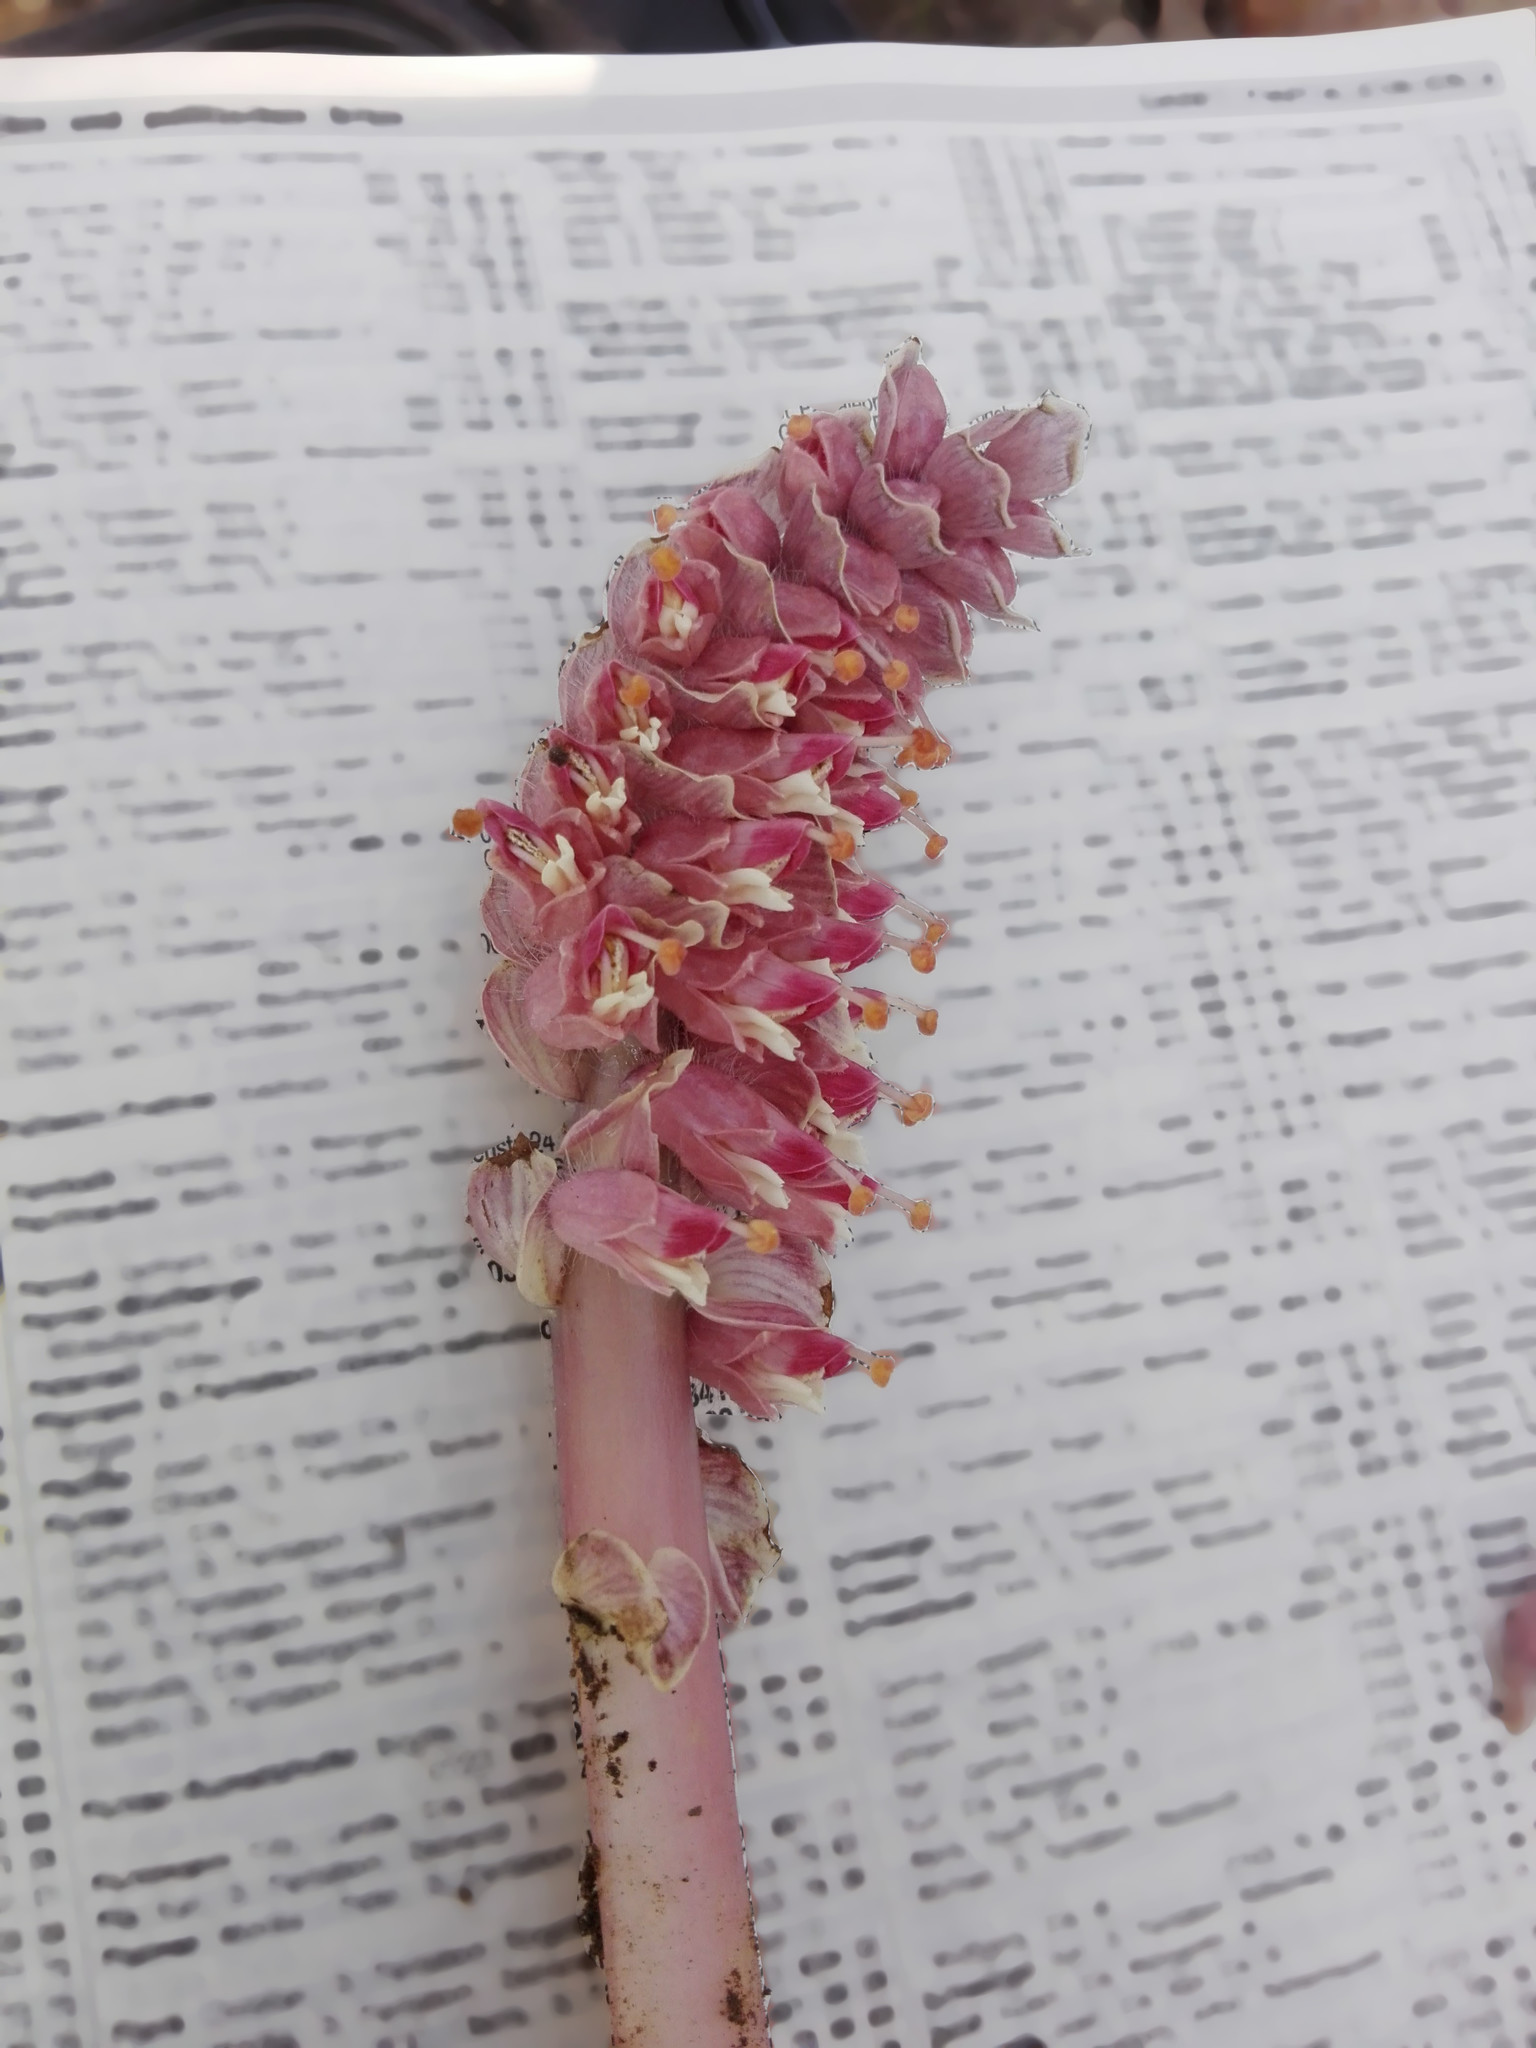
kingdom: Plantae
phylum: Tracheophyta
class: Magnoliopsida
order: Lamiales
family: Orobanchaceae
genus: Lathraea
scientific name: Lathraea squamaria
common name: Toothwort
